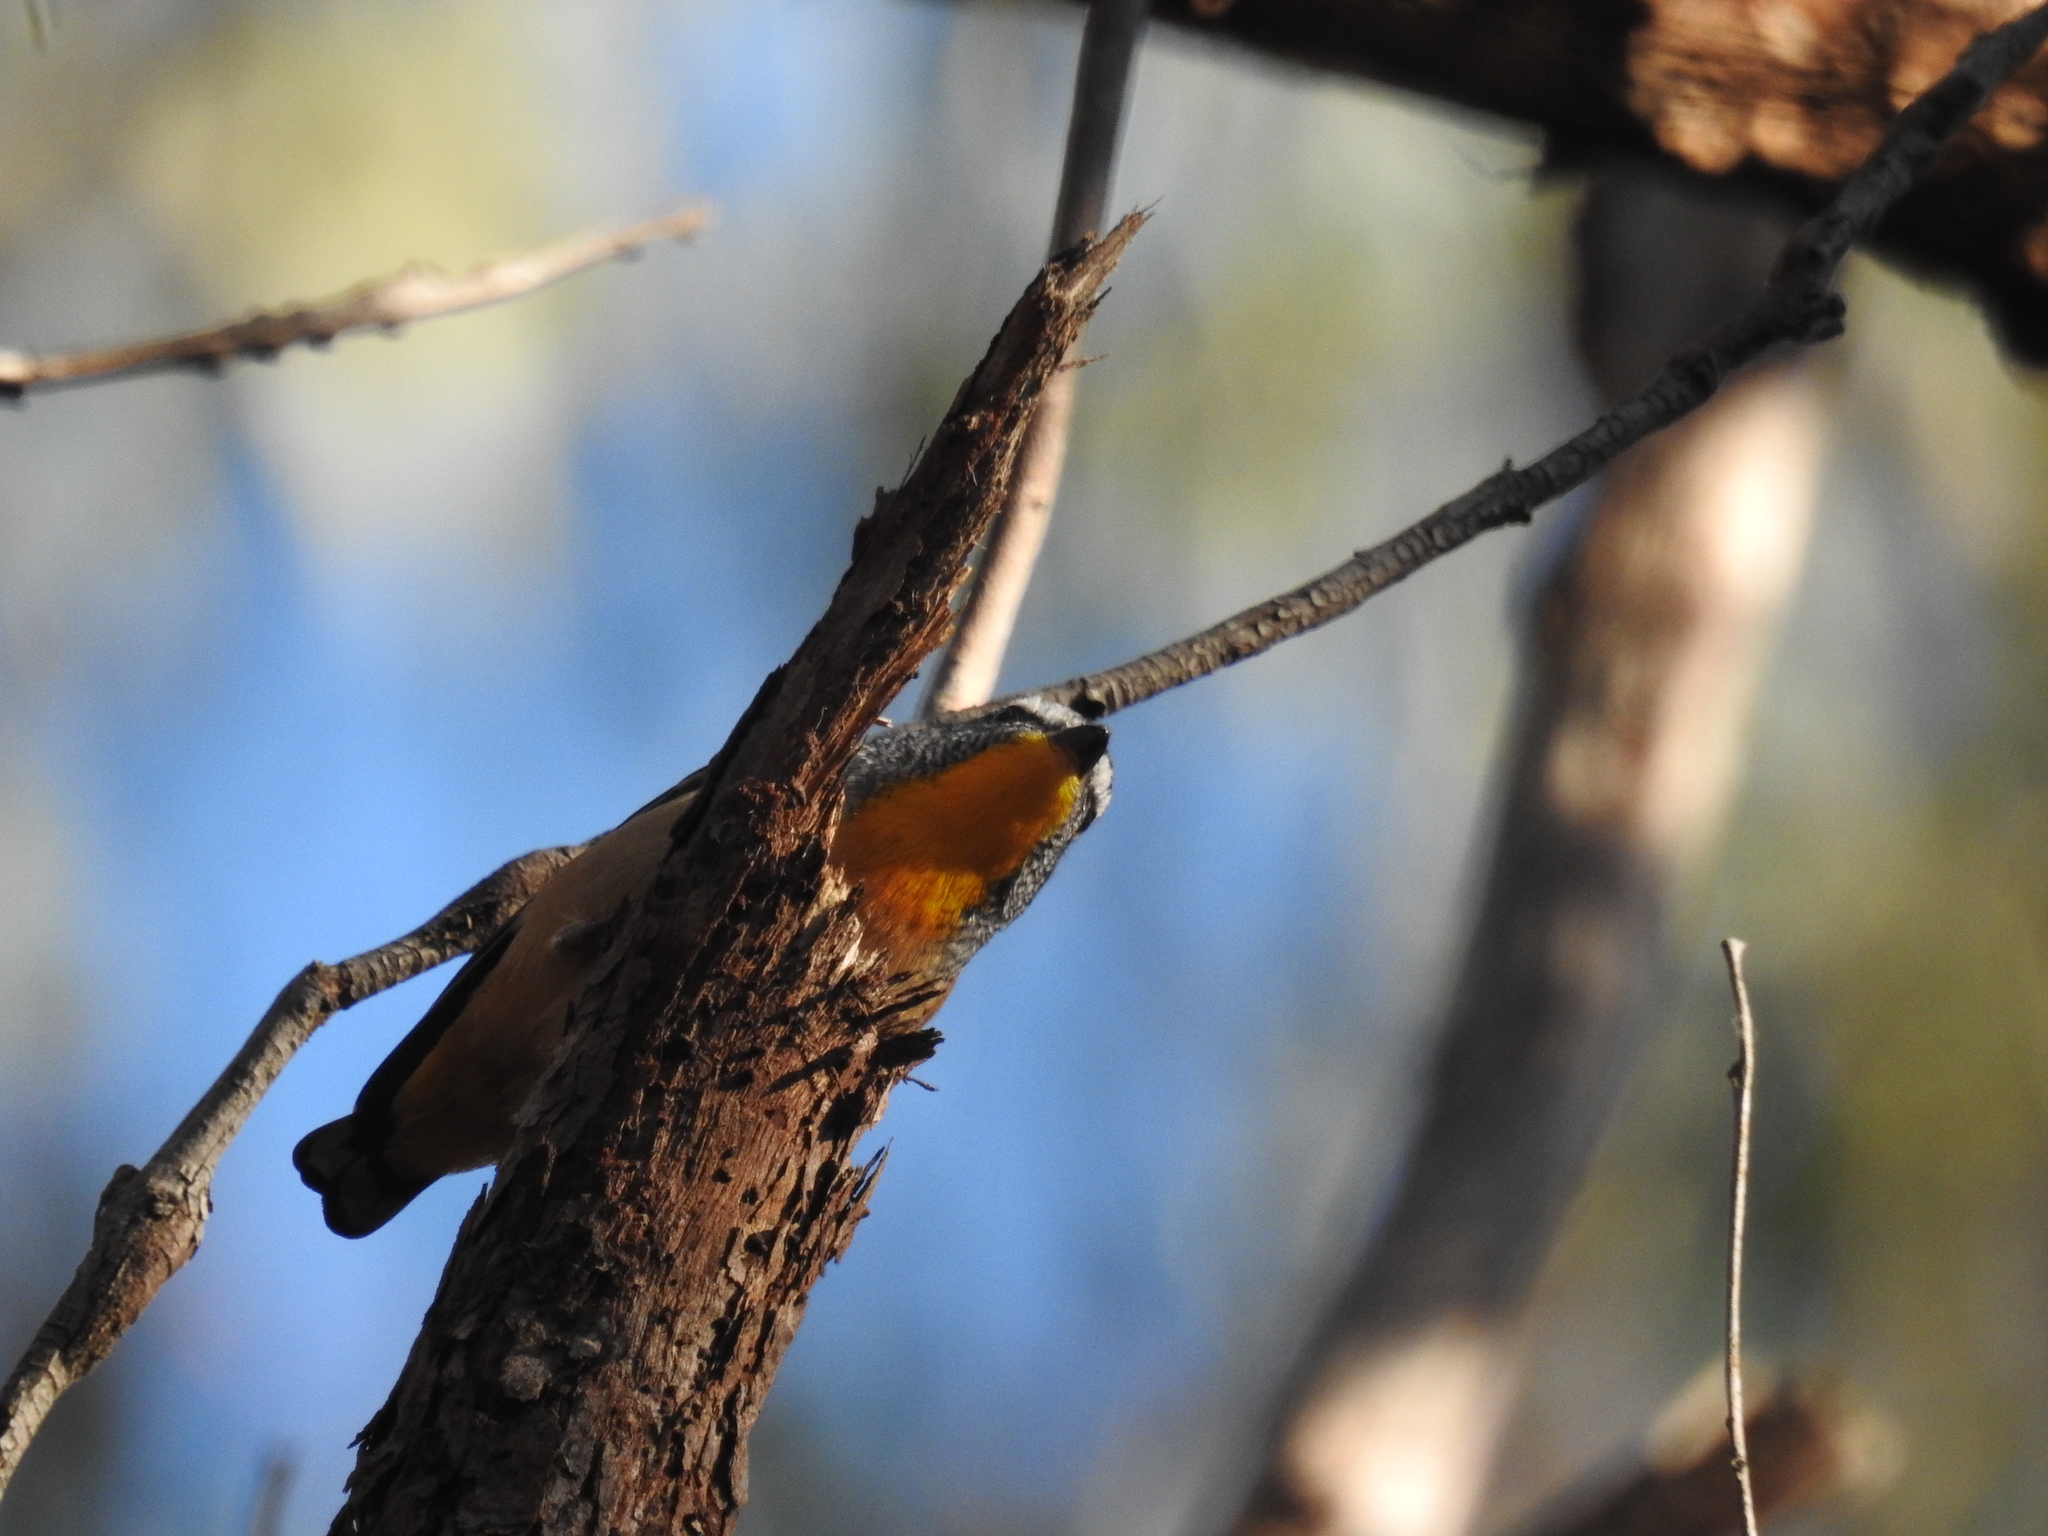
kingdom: Animalia
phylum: Chordata
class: Aves
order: Passeriformes
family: Pardalotidae
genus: Pardalotus
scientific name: Pardalotus punctatus
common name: Spotted pardalote
